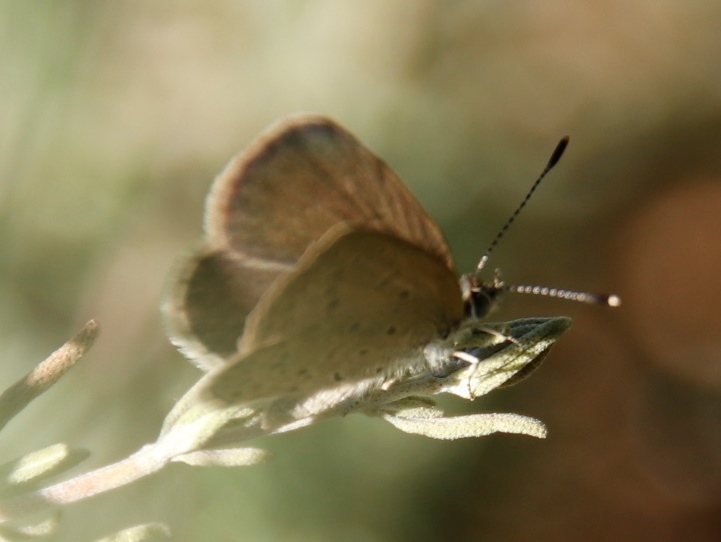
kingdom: Animalia
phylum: Arthropoda
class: Insecta
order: Lepidoptera
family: Lycaenidae
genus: Zizeeria
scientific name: Zizeeria knysna
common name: African grass blue
